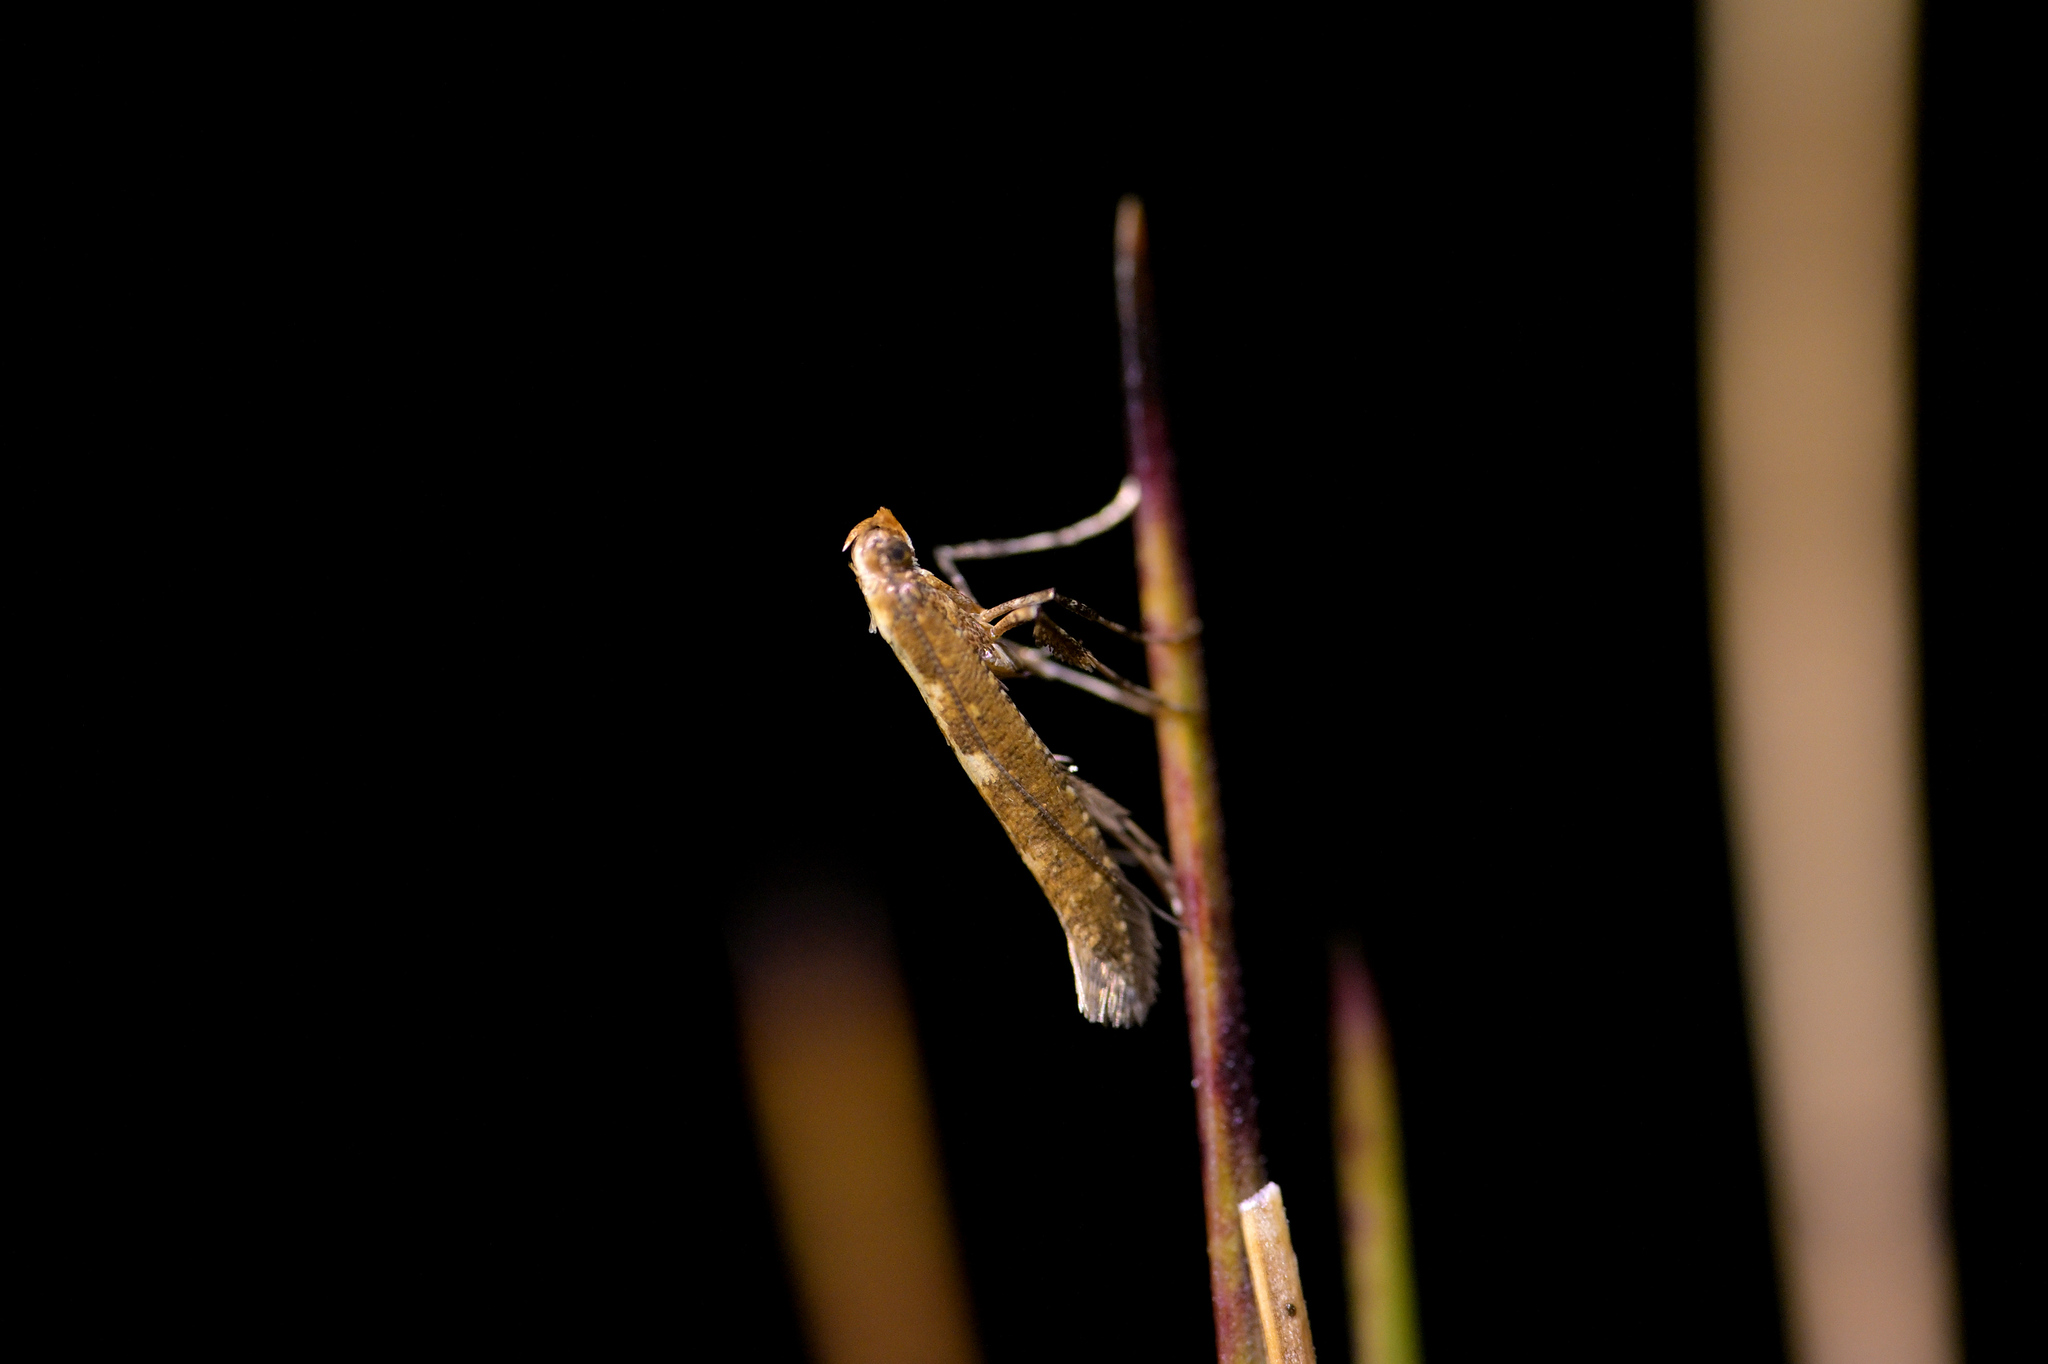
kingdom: Animalia
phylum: Arthropoda
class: Insecta
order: Lepidoptera
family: Gracillariidae
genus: Caloptilia
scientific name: Caloptilia selenitis
